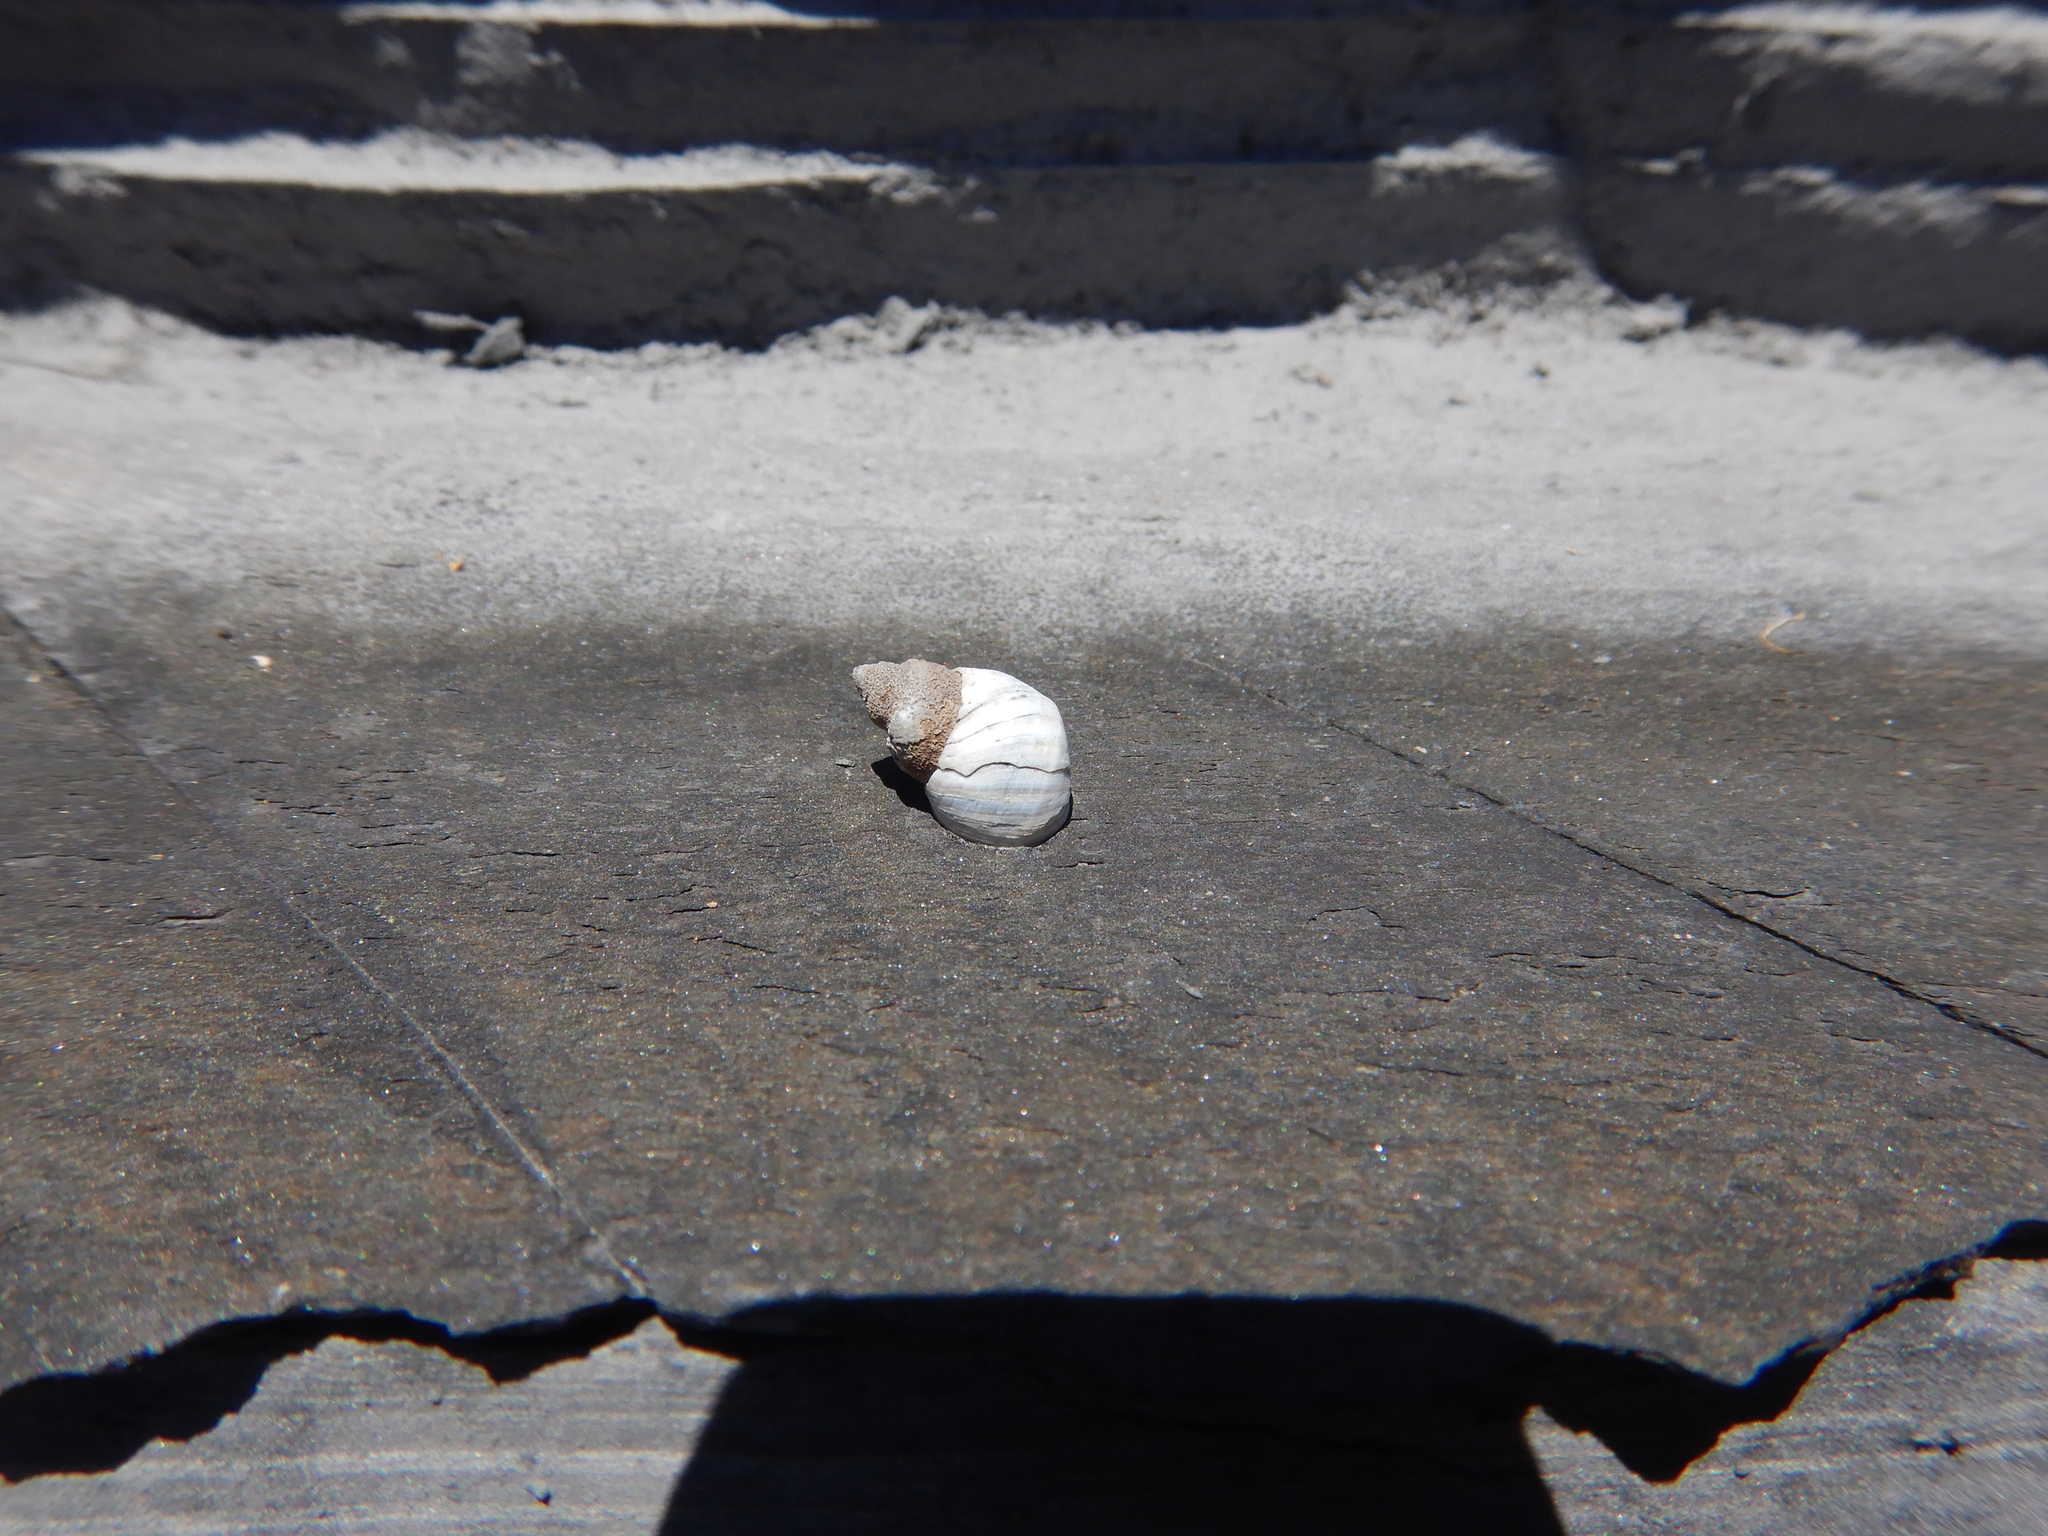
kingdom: Animalia
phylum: Mollusca
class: Gastropoda
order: Littorinimorpha
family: Littorinidae
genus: Austrolittorina
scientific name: Austrolittorina unifasciata
